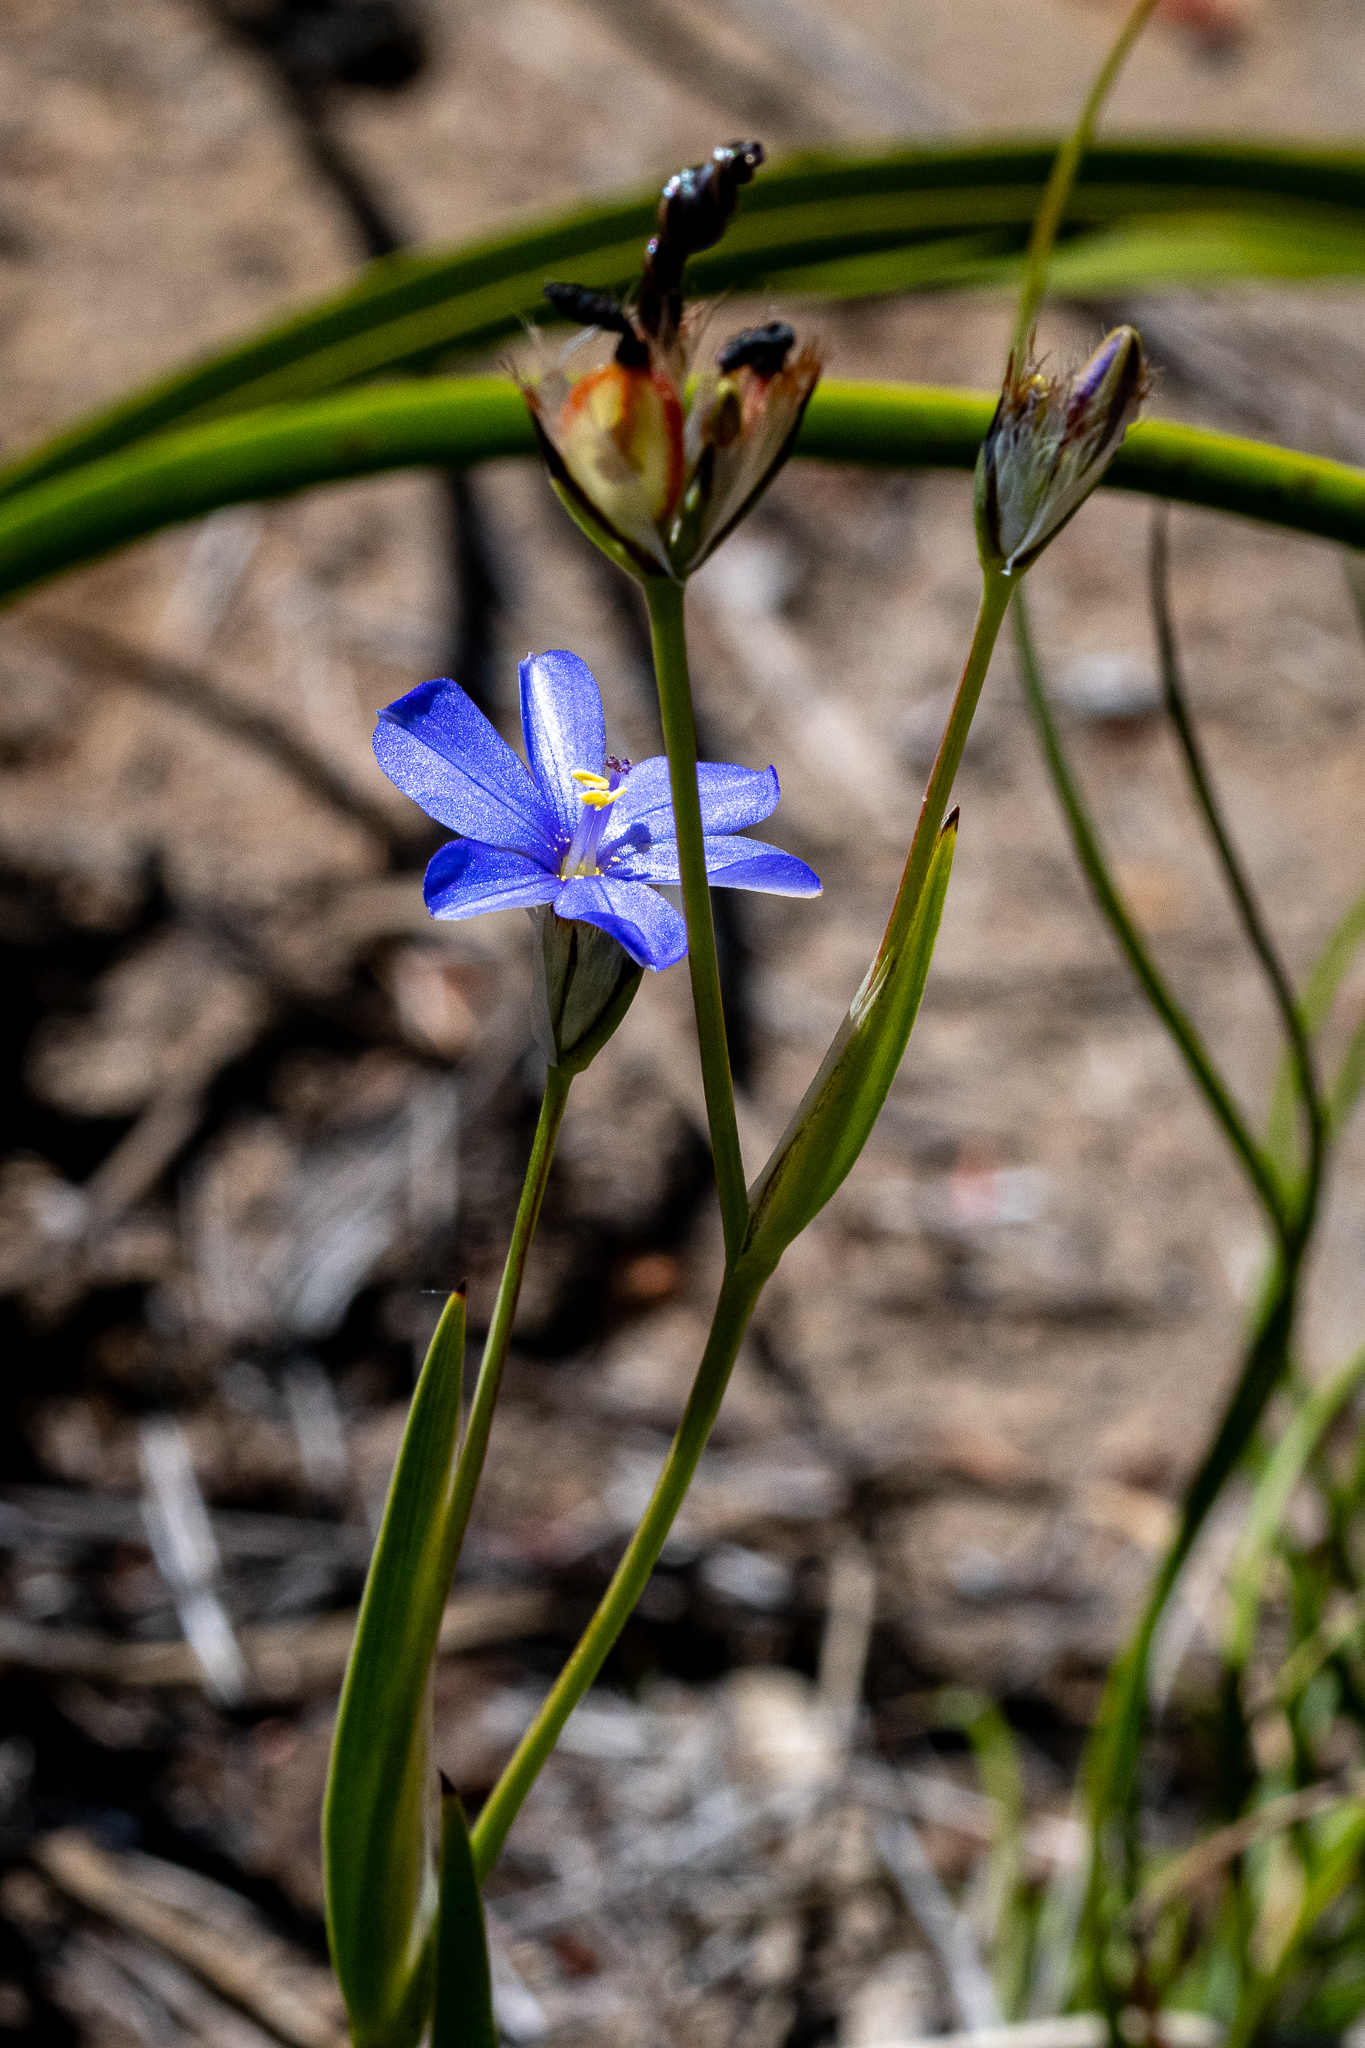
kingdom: Plantae
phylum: Tracheophyta
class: Liliopsida
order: Asparagales
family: Iridaceae
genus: Aristea
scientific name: Aristea africana
